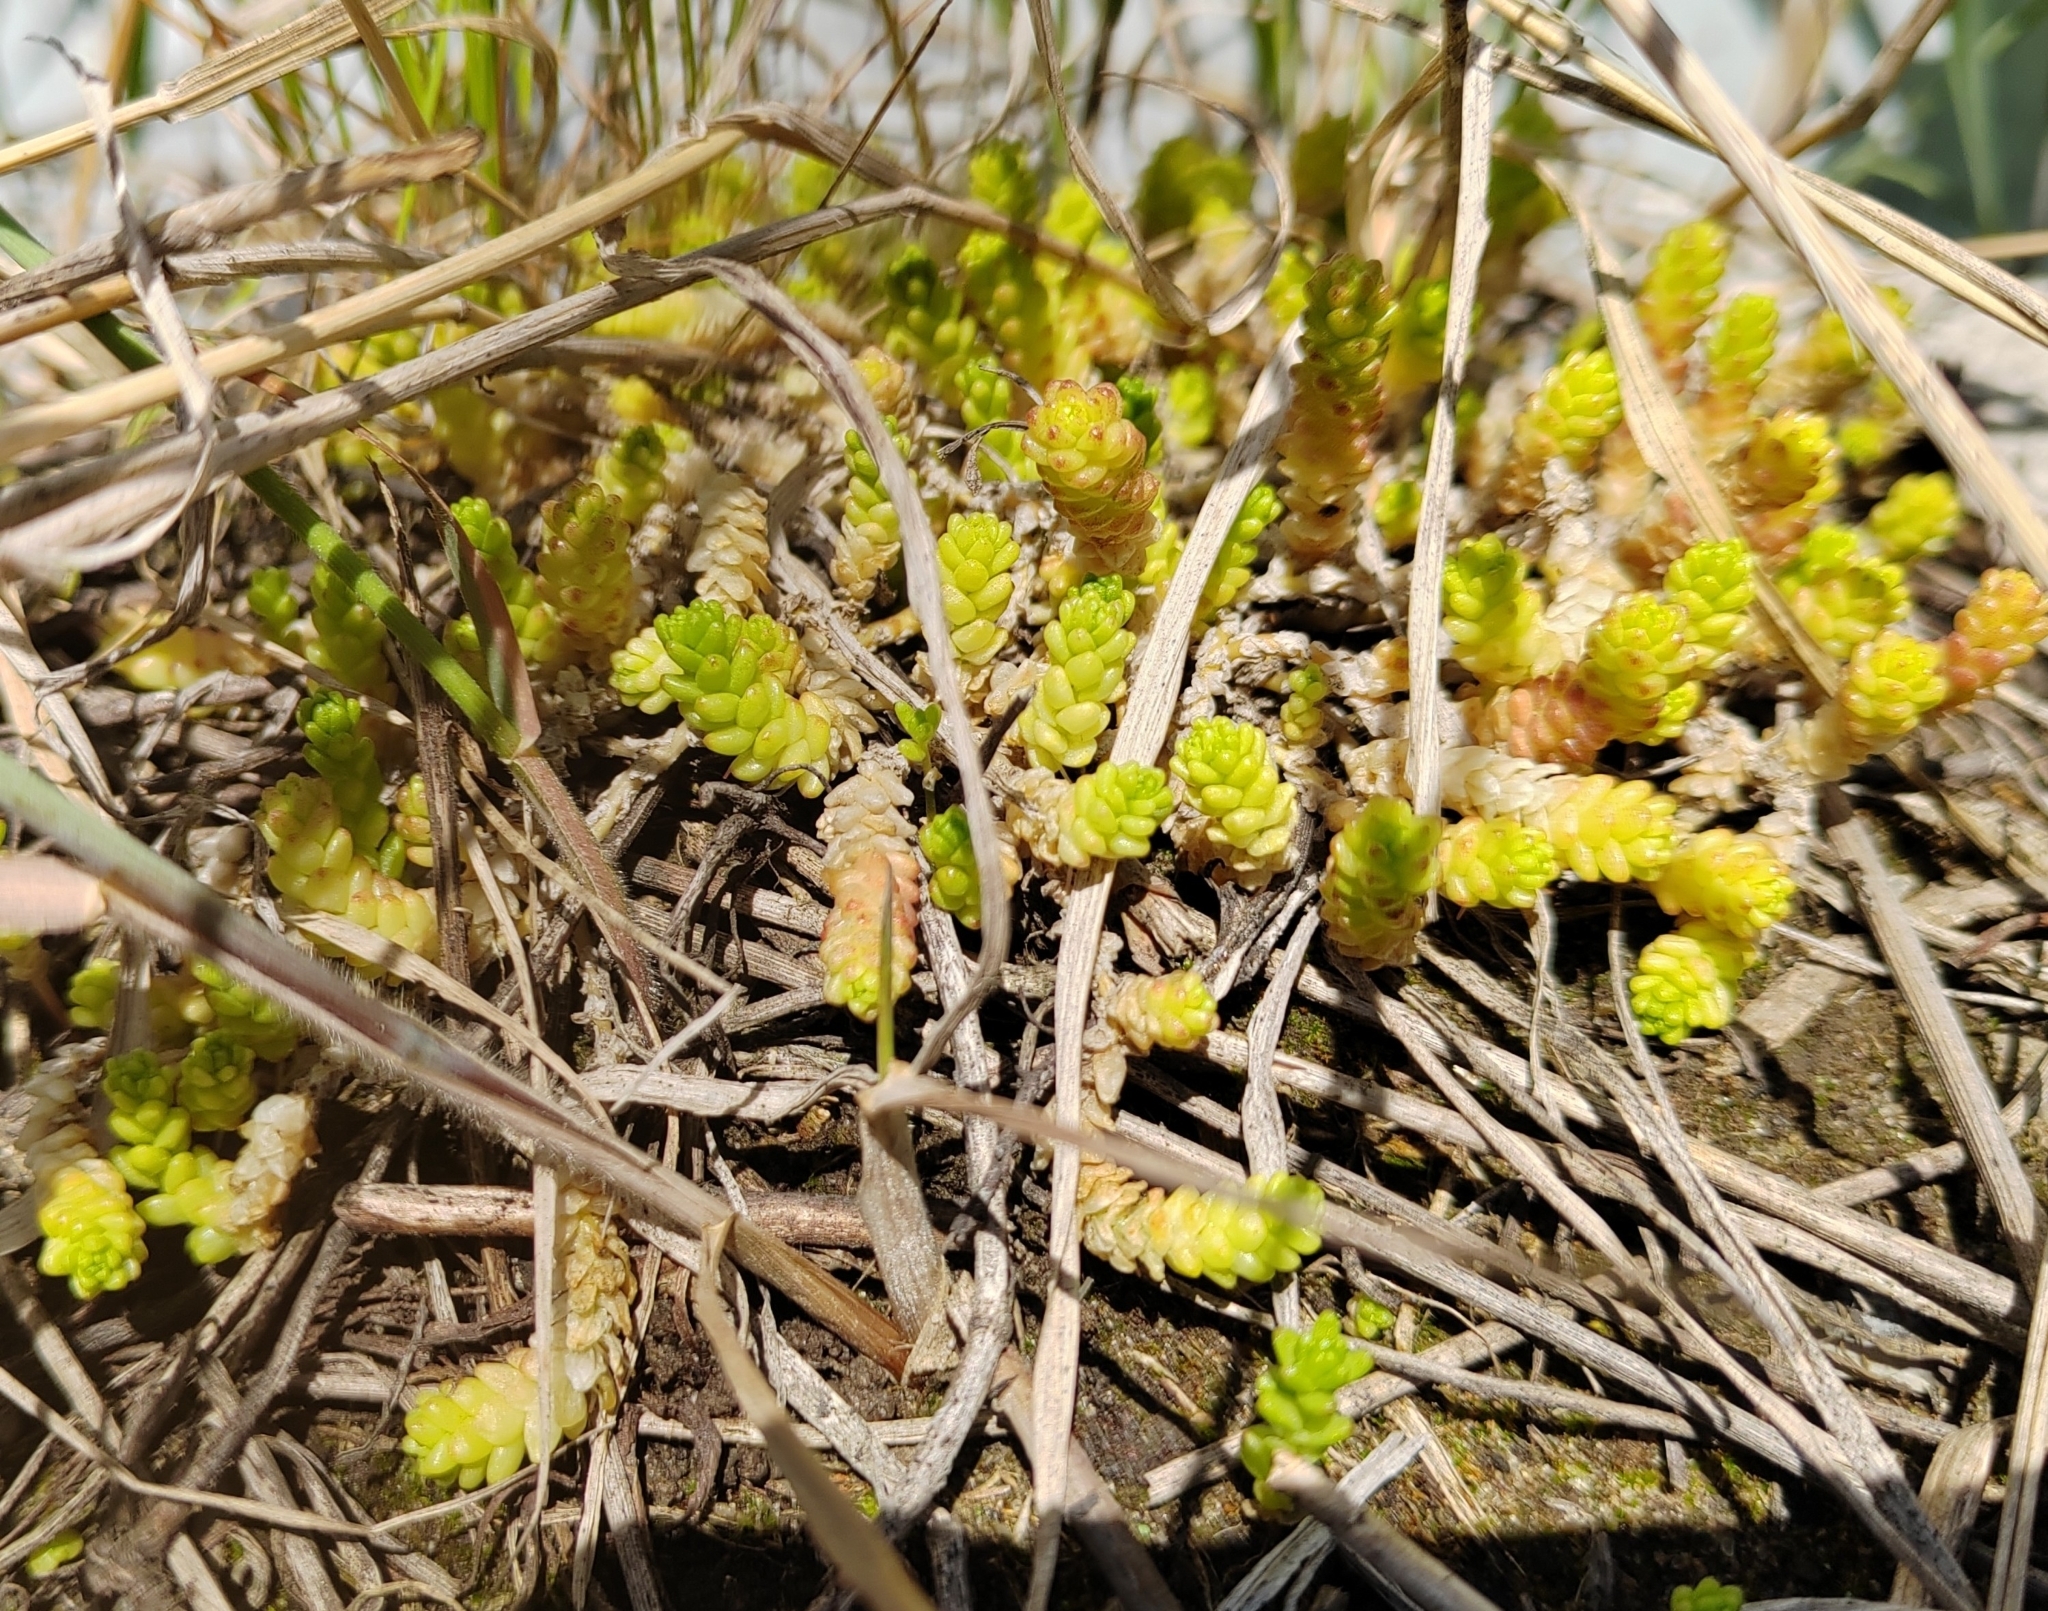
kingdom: Plantae
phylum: Tracheophyta
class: Magnoliopsida
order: Saxifragales
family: Crassulaceae
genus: Sedum
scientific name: Sedum acre
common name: Biting stonecrop
